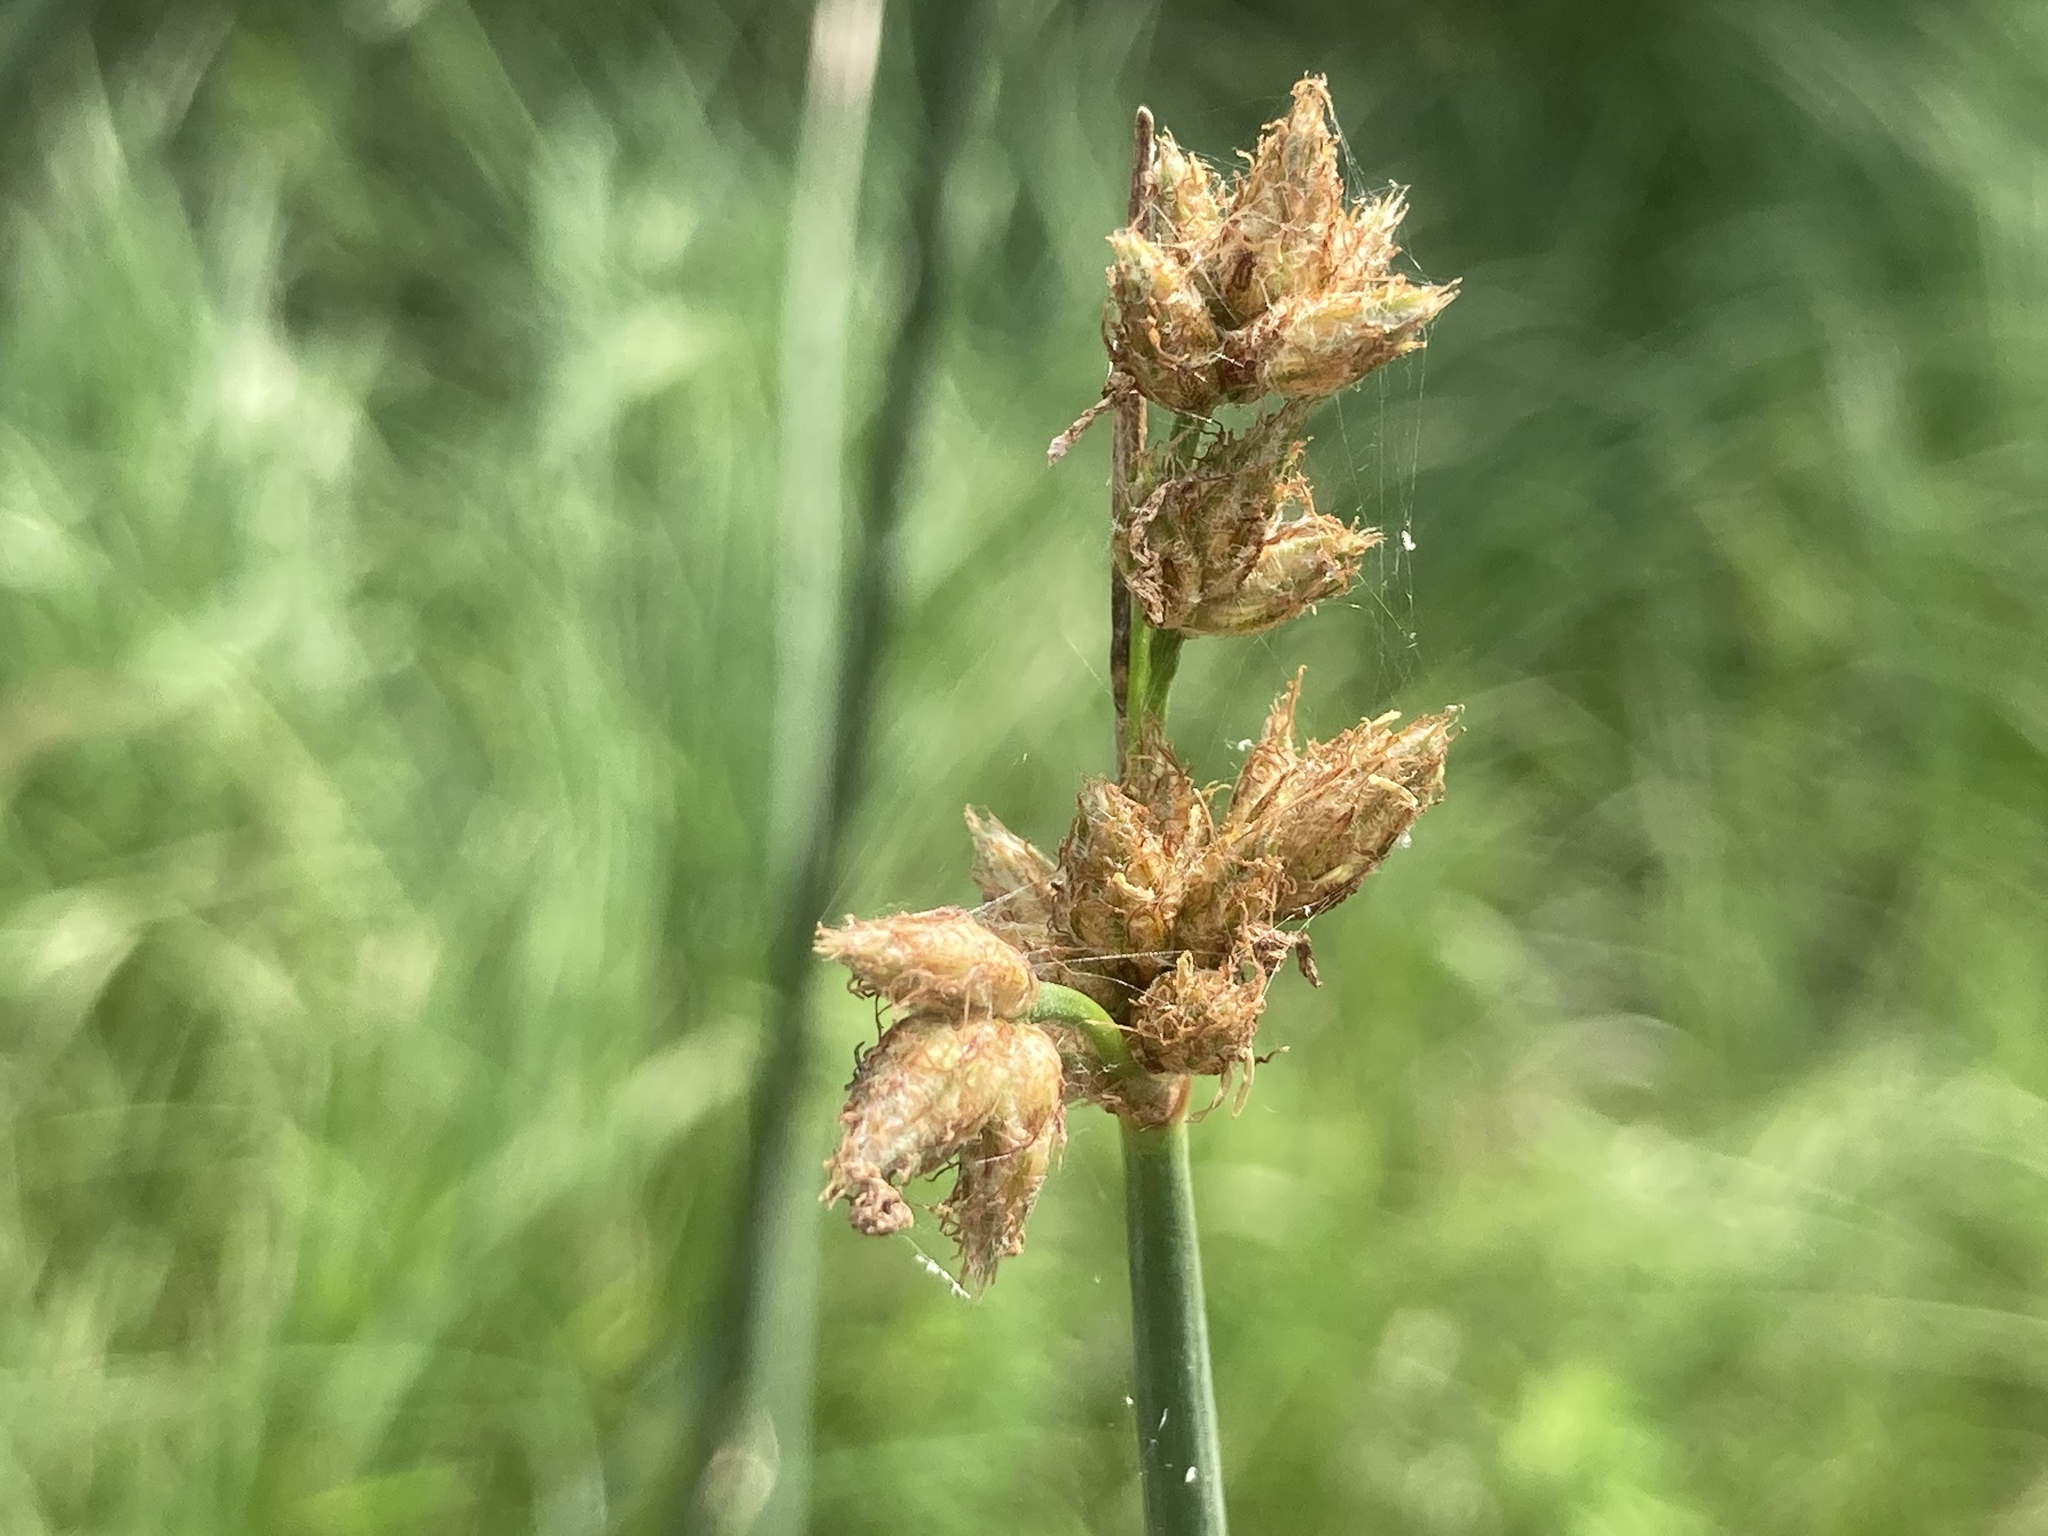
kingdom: Plantae
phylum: Tracheophyta
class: Liliopsida
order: Poales
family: Cyperaceae
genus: Schoenoplectus
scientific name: Schoenoplectus acutus
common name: Hardstem bulrush
